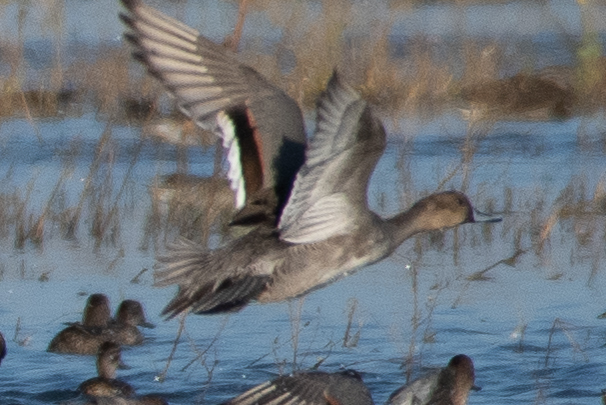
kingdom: Animalia
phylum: Chordata
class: Aves
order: Anseriformes
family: Anatidae
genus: Anas
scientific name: Anas acuta
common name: Northern pintail
